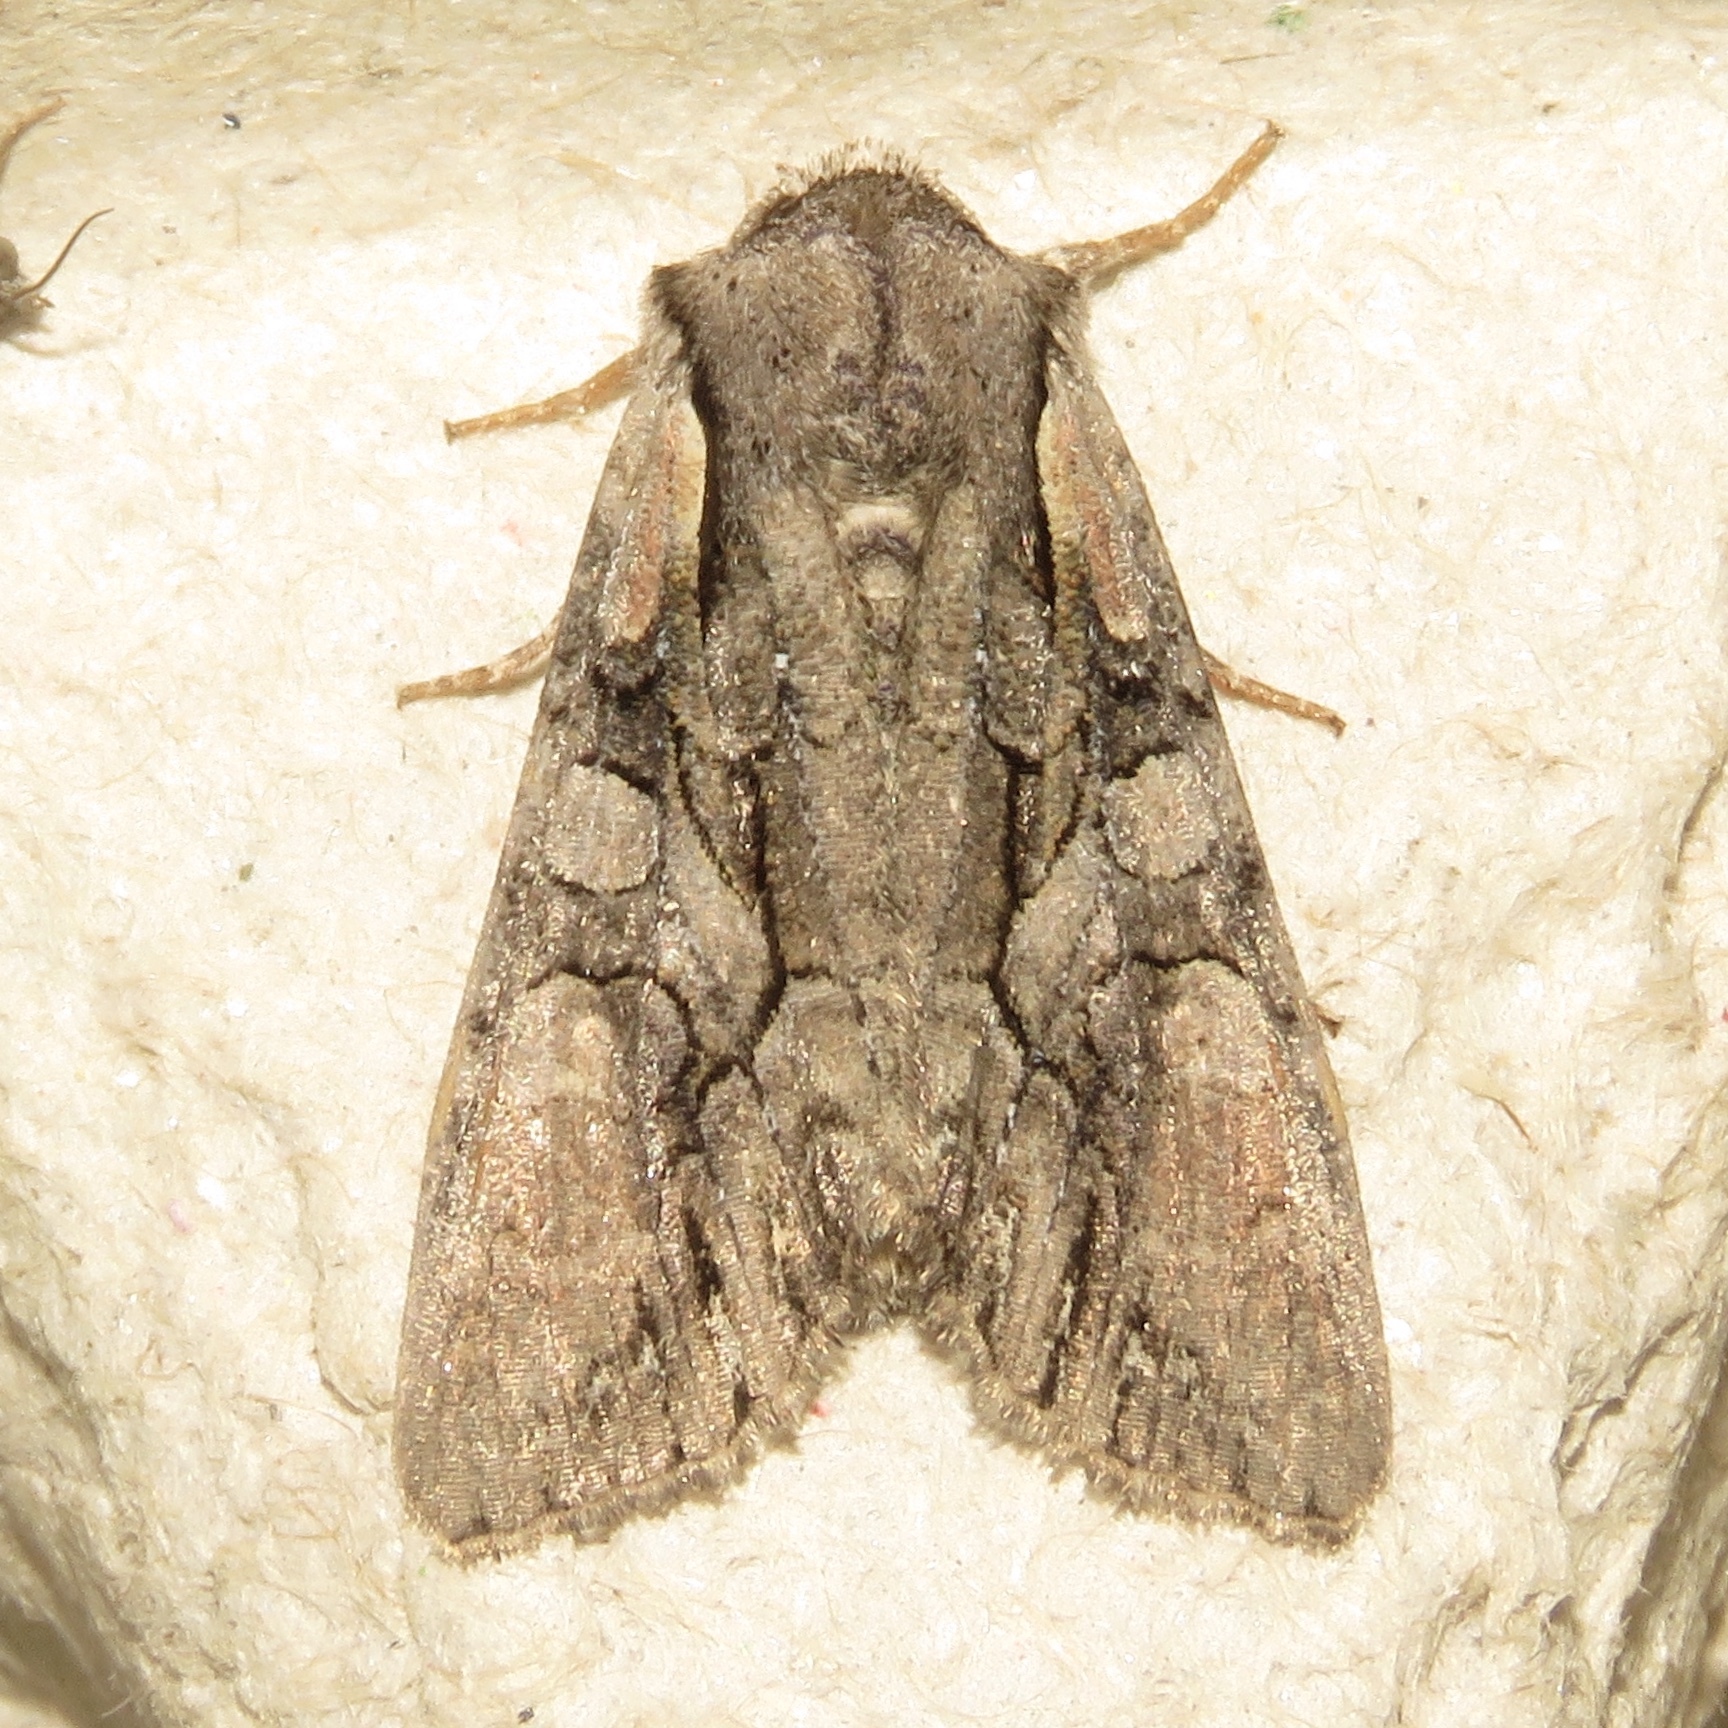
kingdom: Animalia
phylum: Arthropoda
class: Insecta
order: Lepidoptera
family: Noctuidae
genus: Lacanobia
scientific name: Lacanobia subjuncta
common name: Speckled cutworm moth
